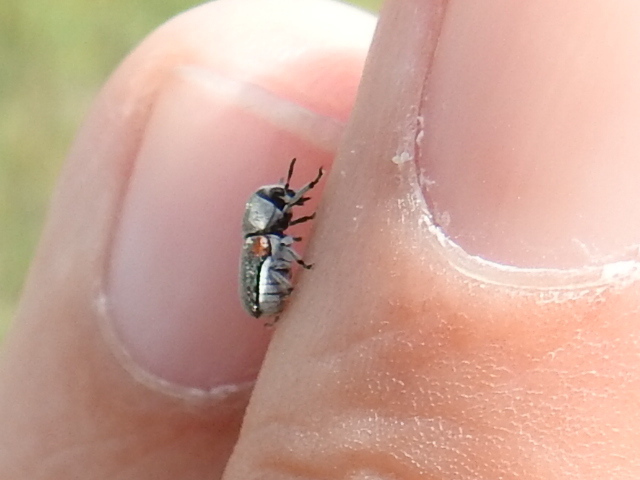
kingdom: Animalia
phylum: Arthropoda
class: Insecta
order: Coleoptera
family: Chrysomelidae
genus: Coleothorpa
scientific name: Coleothorpa axillaris
